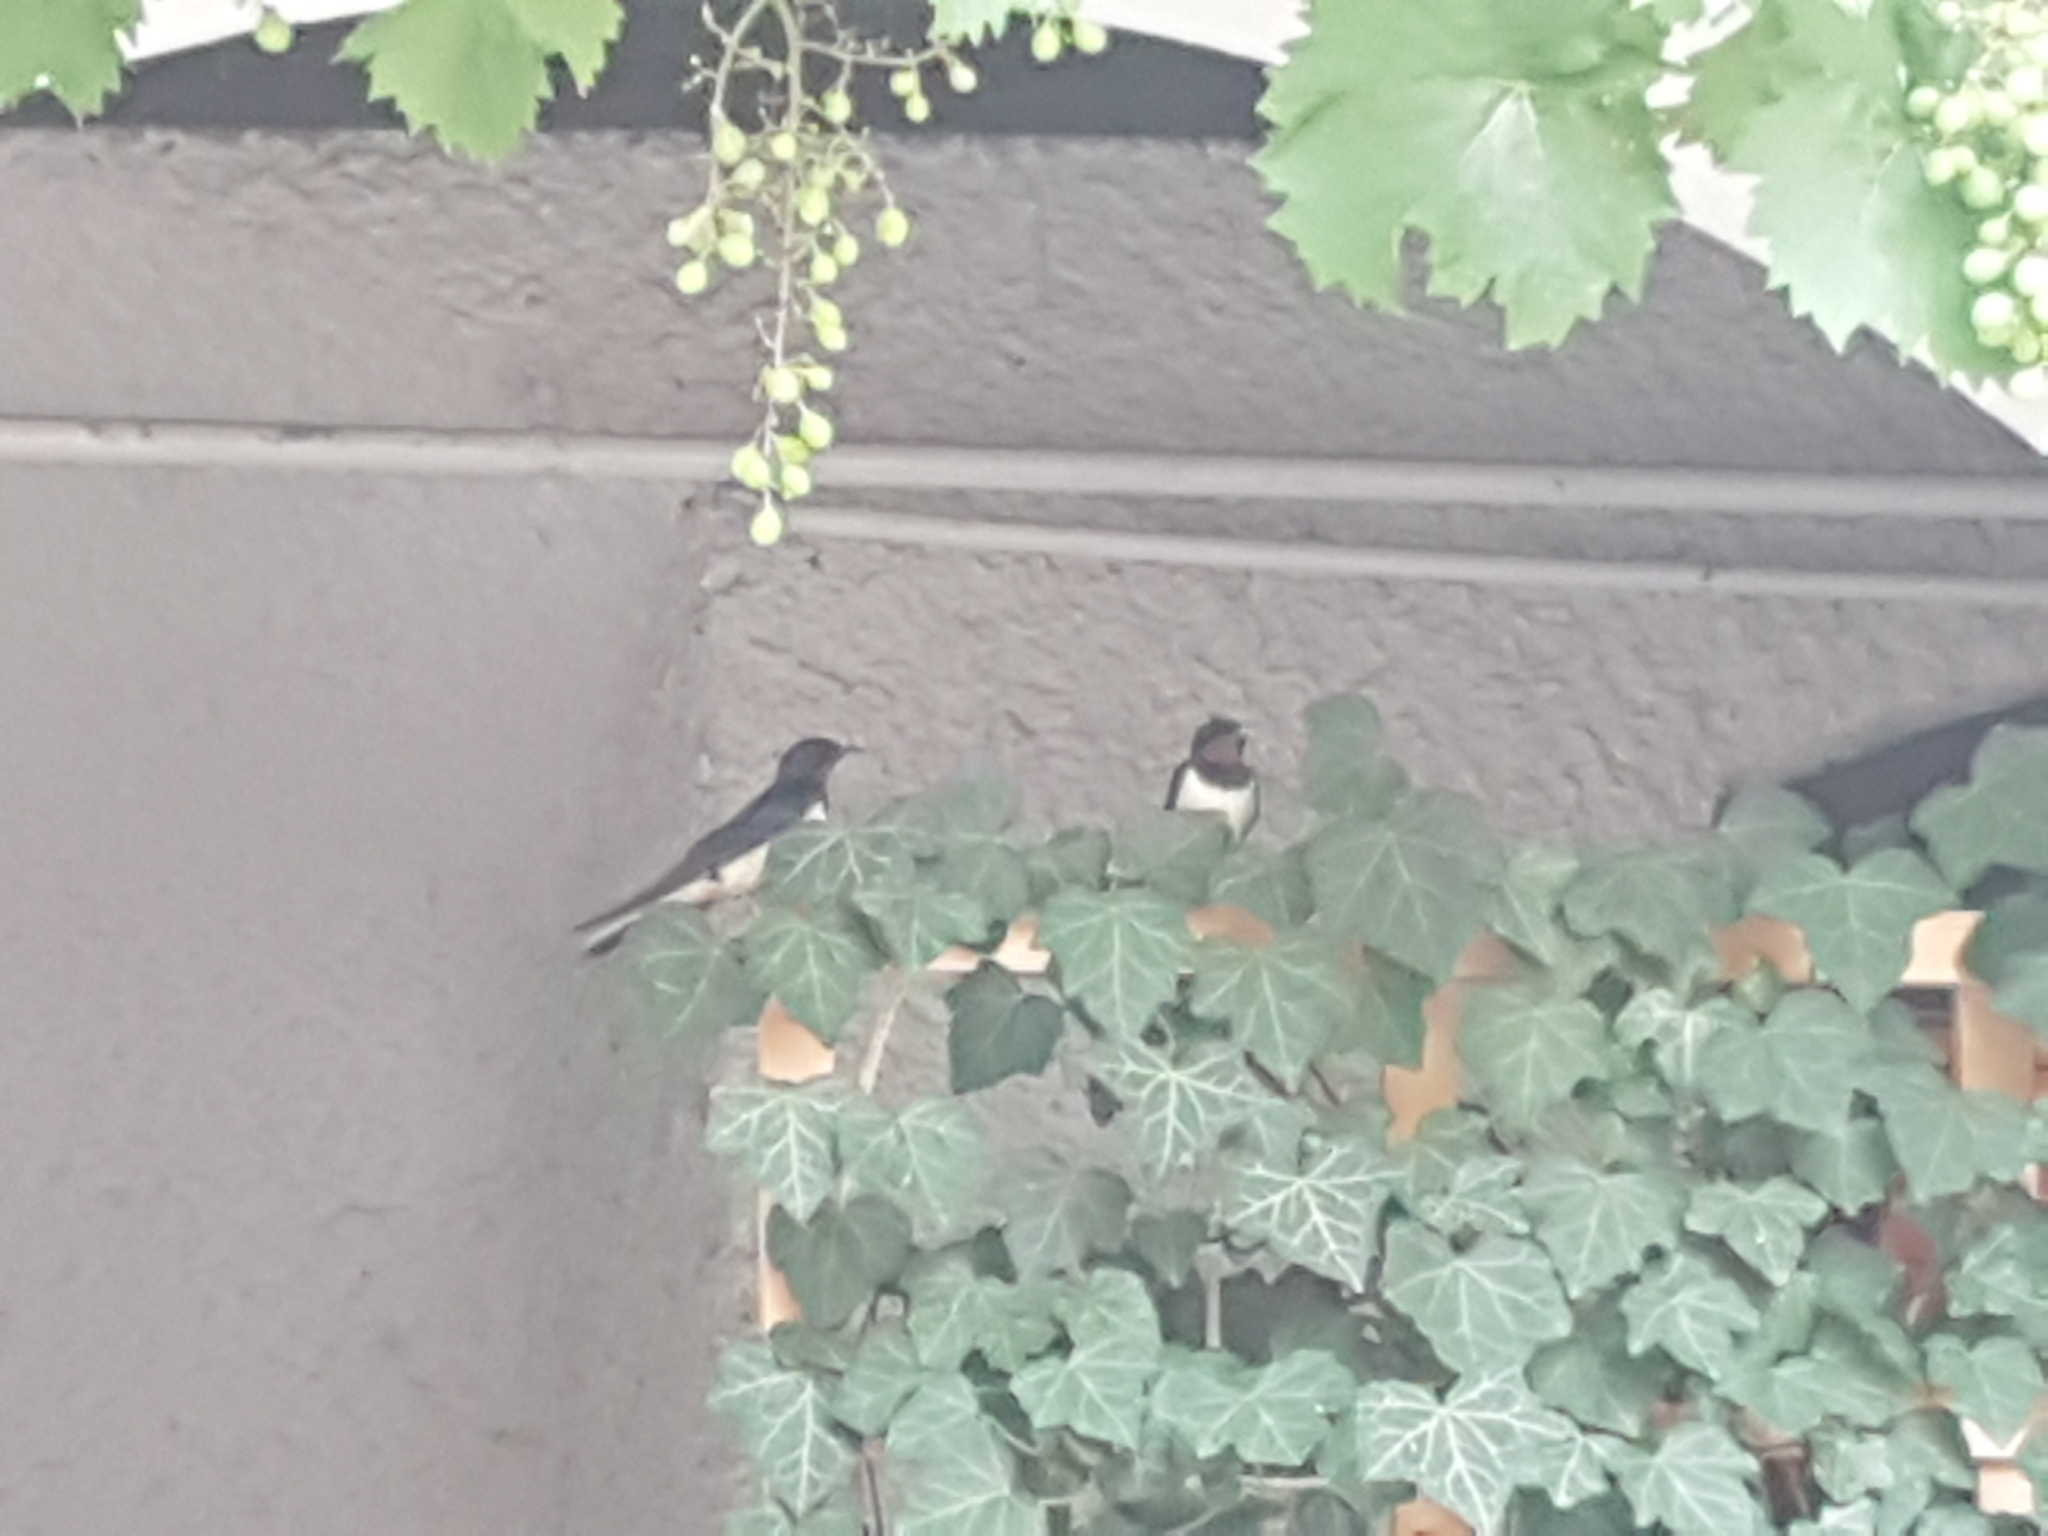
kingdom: Animalia
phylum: Chordata
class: Aves
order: Passeriformes
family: Hirundinidae
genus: Hirundo
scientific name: Hirundo rustica
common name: Barn swallow
